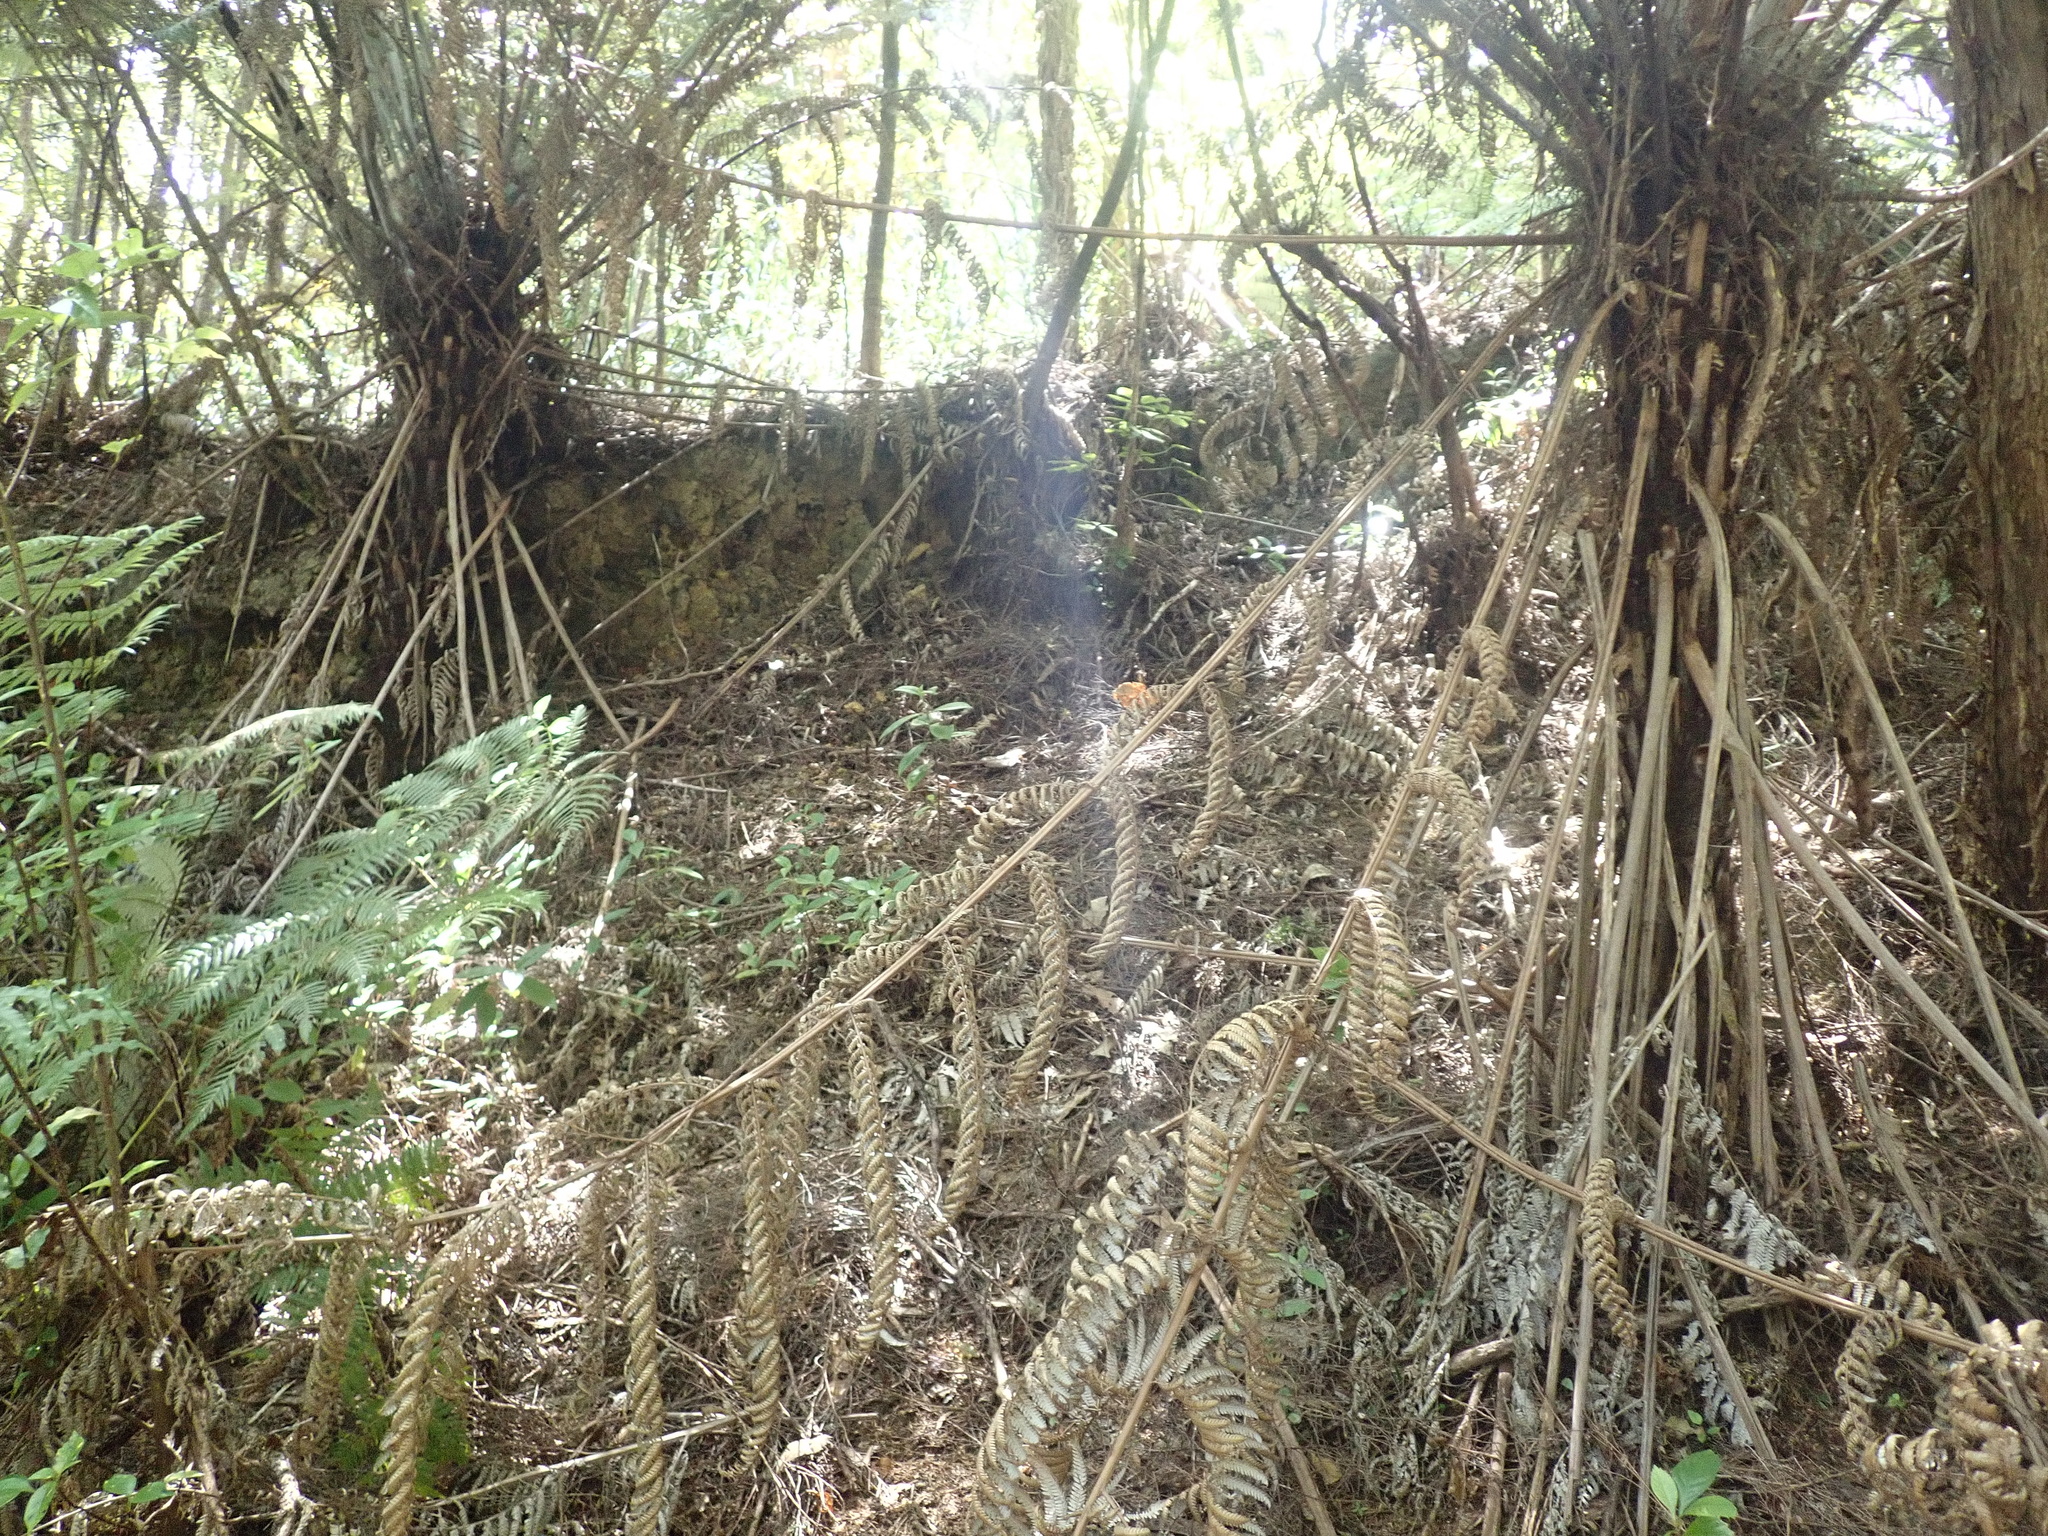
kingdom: Plantae
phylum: Tracheophyta
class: Polypodiopsida
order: Cyatheales
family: Cyatheaceae
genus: Alsophila
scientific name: Alsophila dealbata
